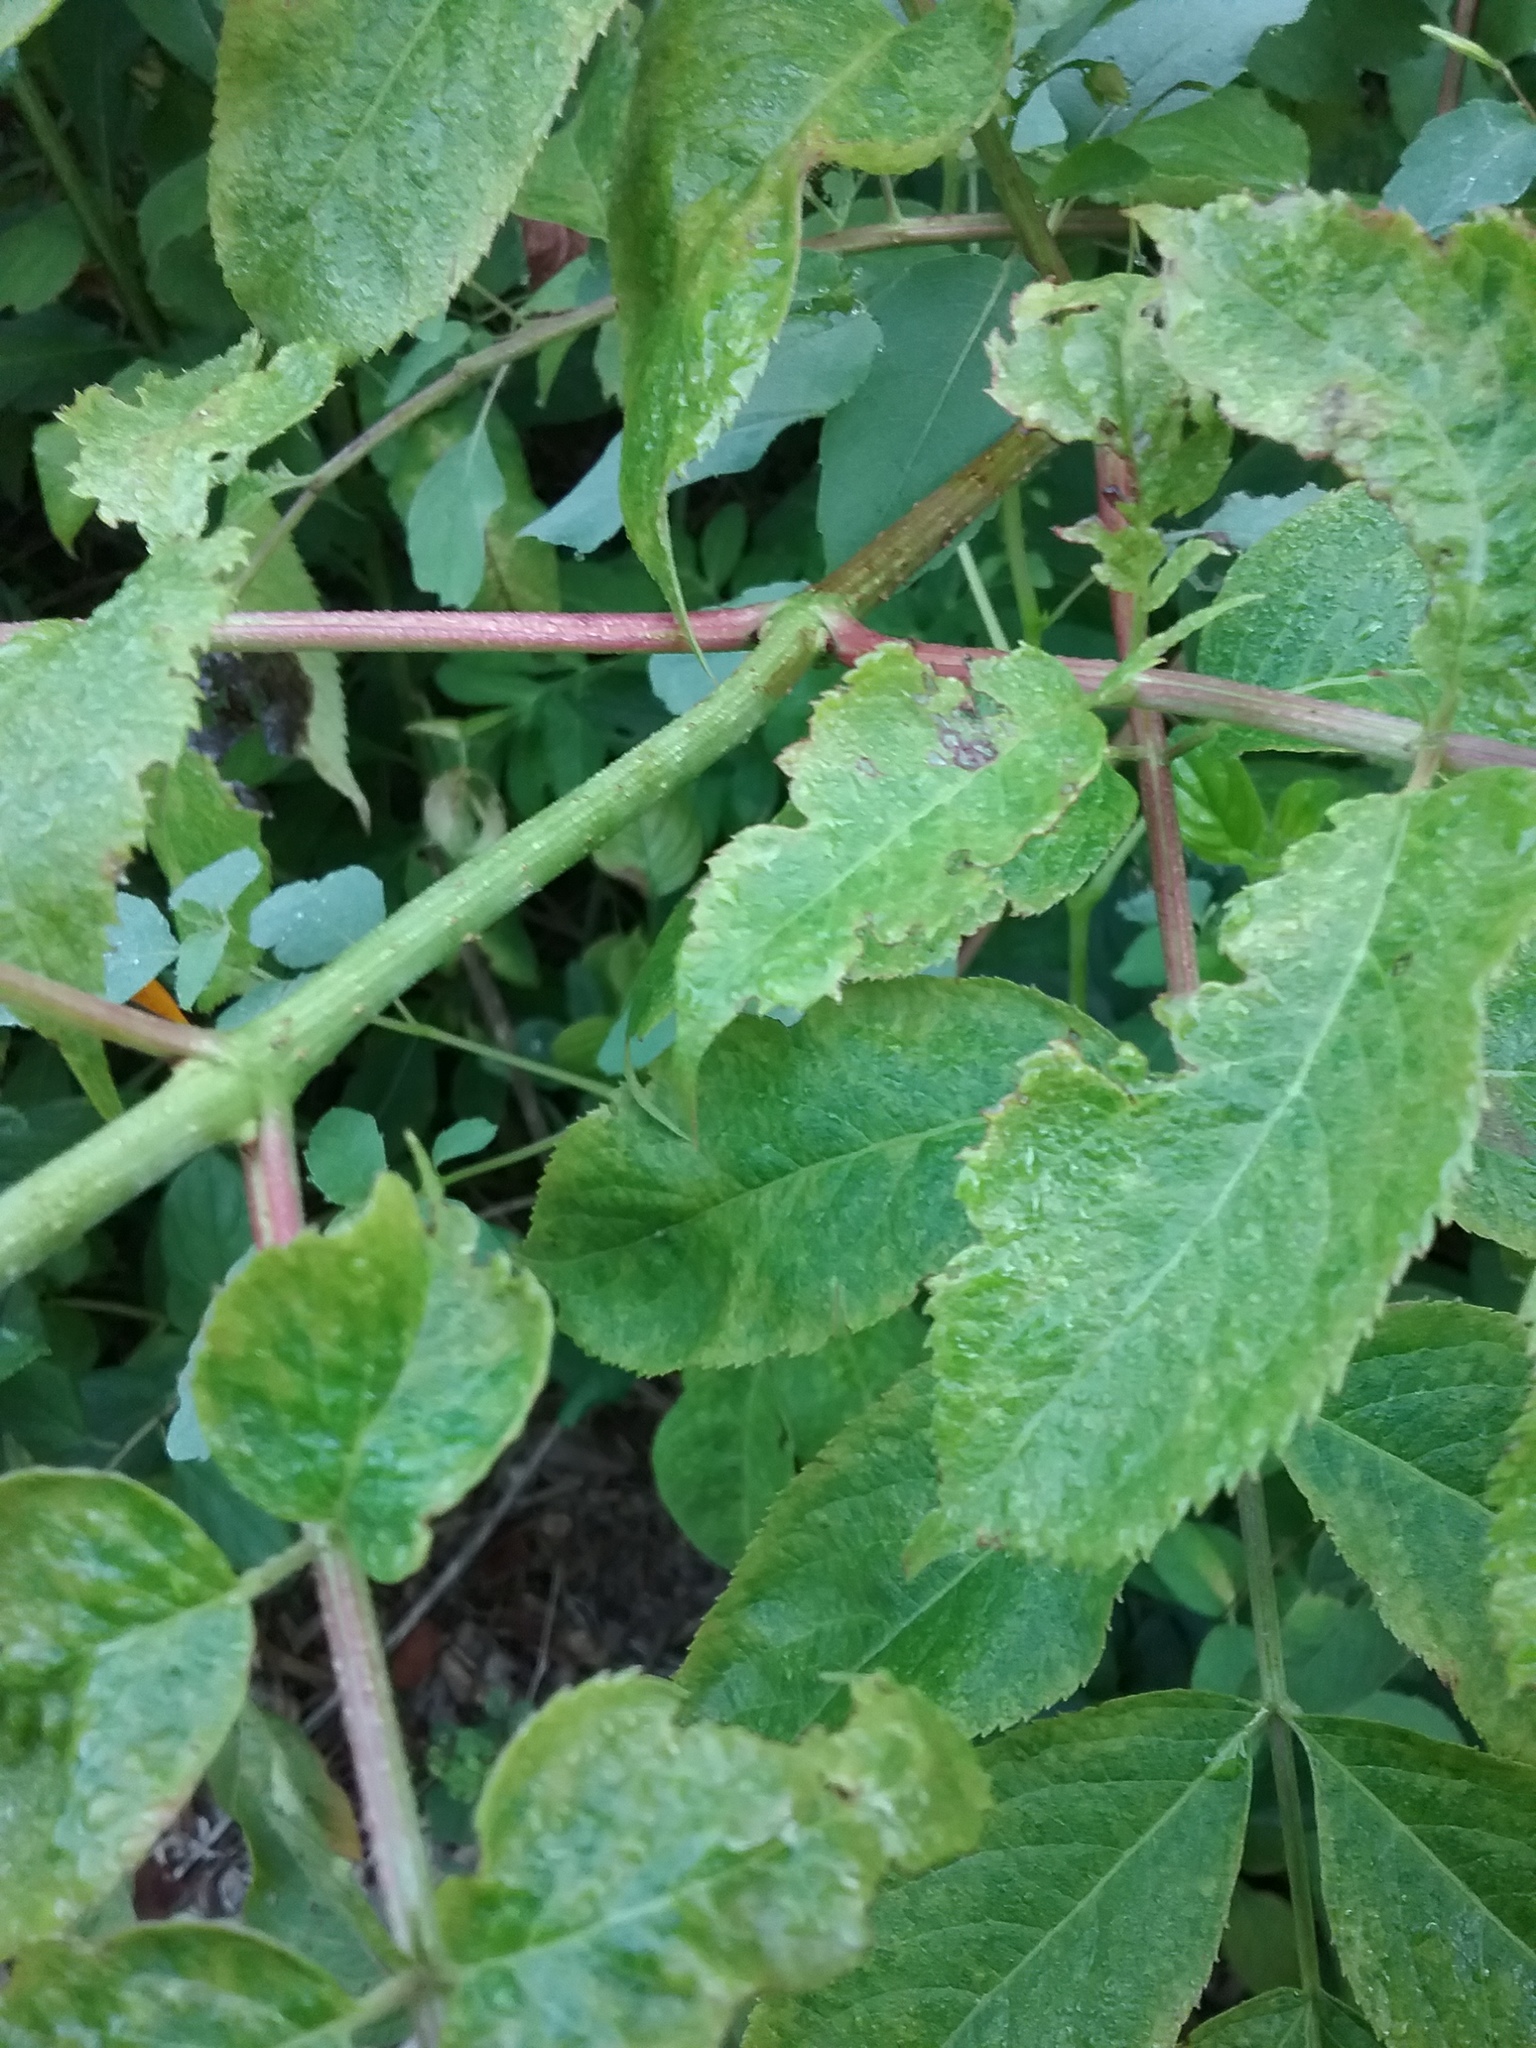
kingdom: Plantae
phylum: Tracheophyta
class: Magnoliopsida
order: Dipsacales
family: Viburnaceae
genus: Sambucus
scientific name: Sambucus canadensis
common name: American elder
